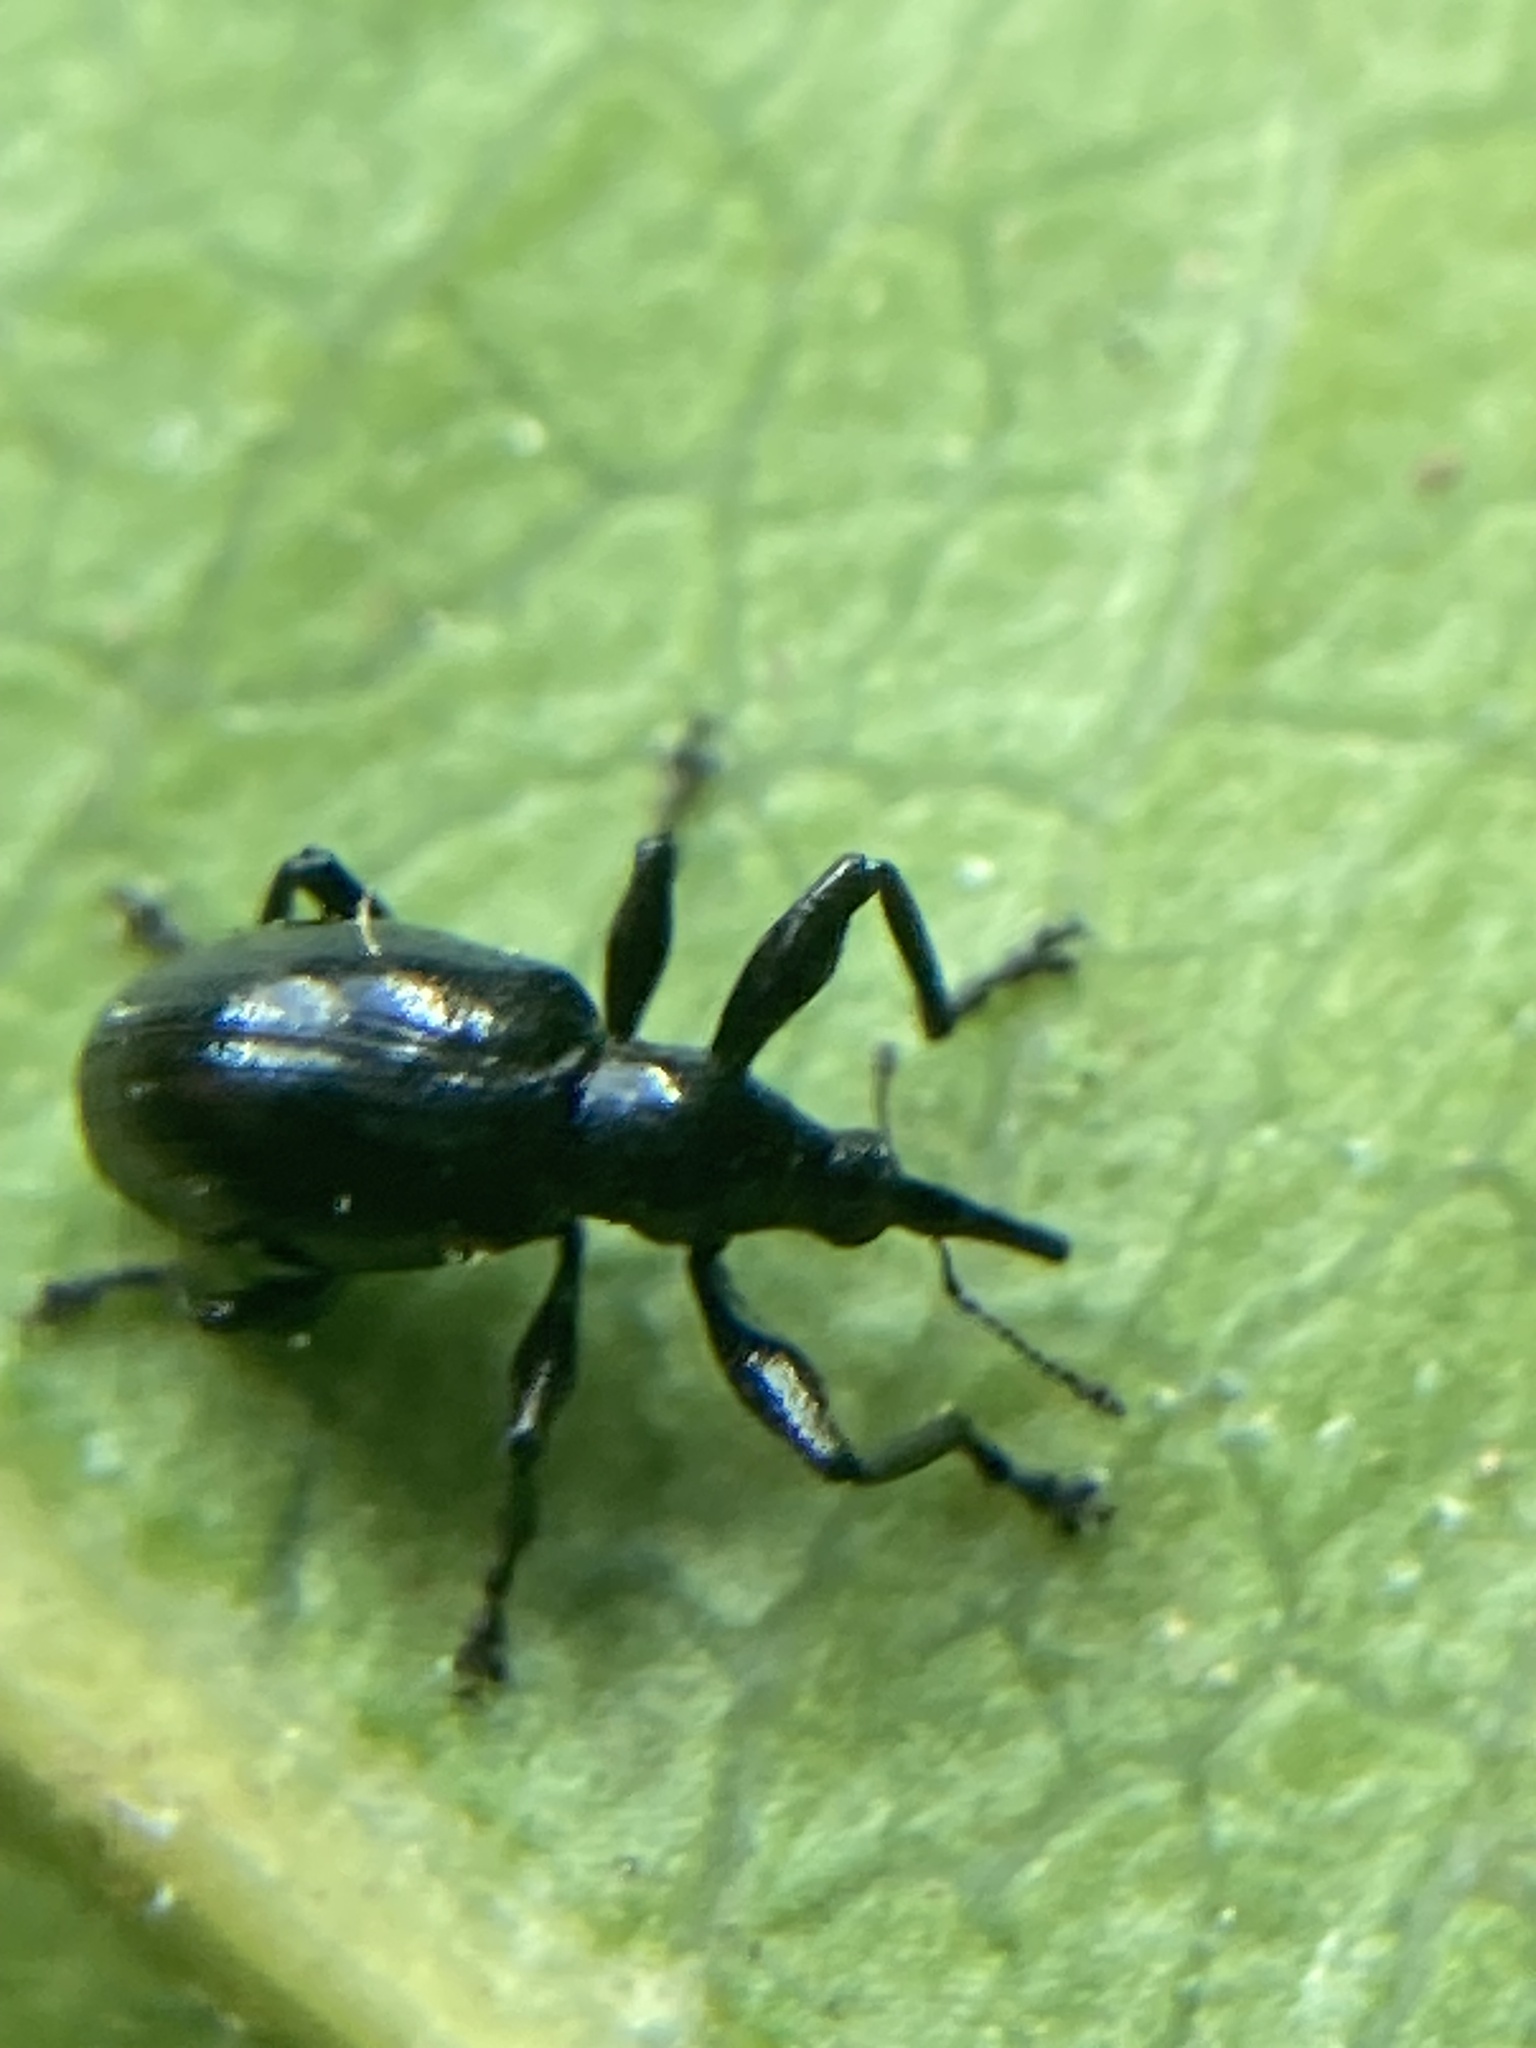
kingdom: Animalia
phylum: Arthropoda
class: Insecta
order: Coleoptera
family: Brentidae
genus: Nanomyrmacyba
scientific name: Nanomyrmacyba
